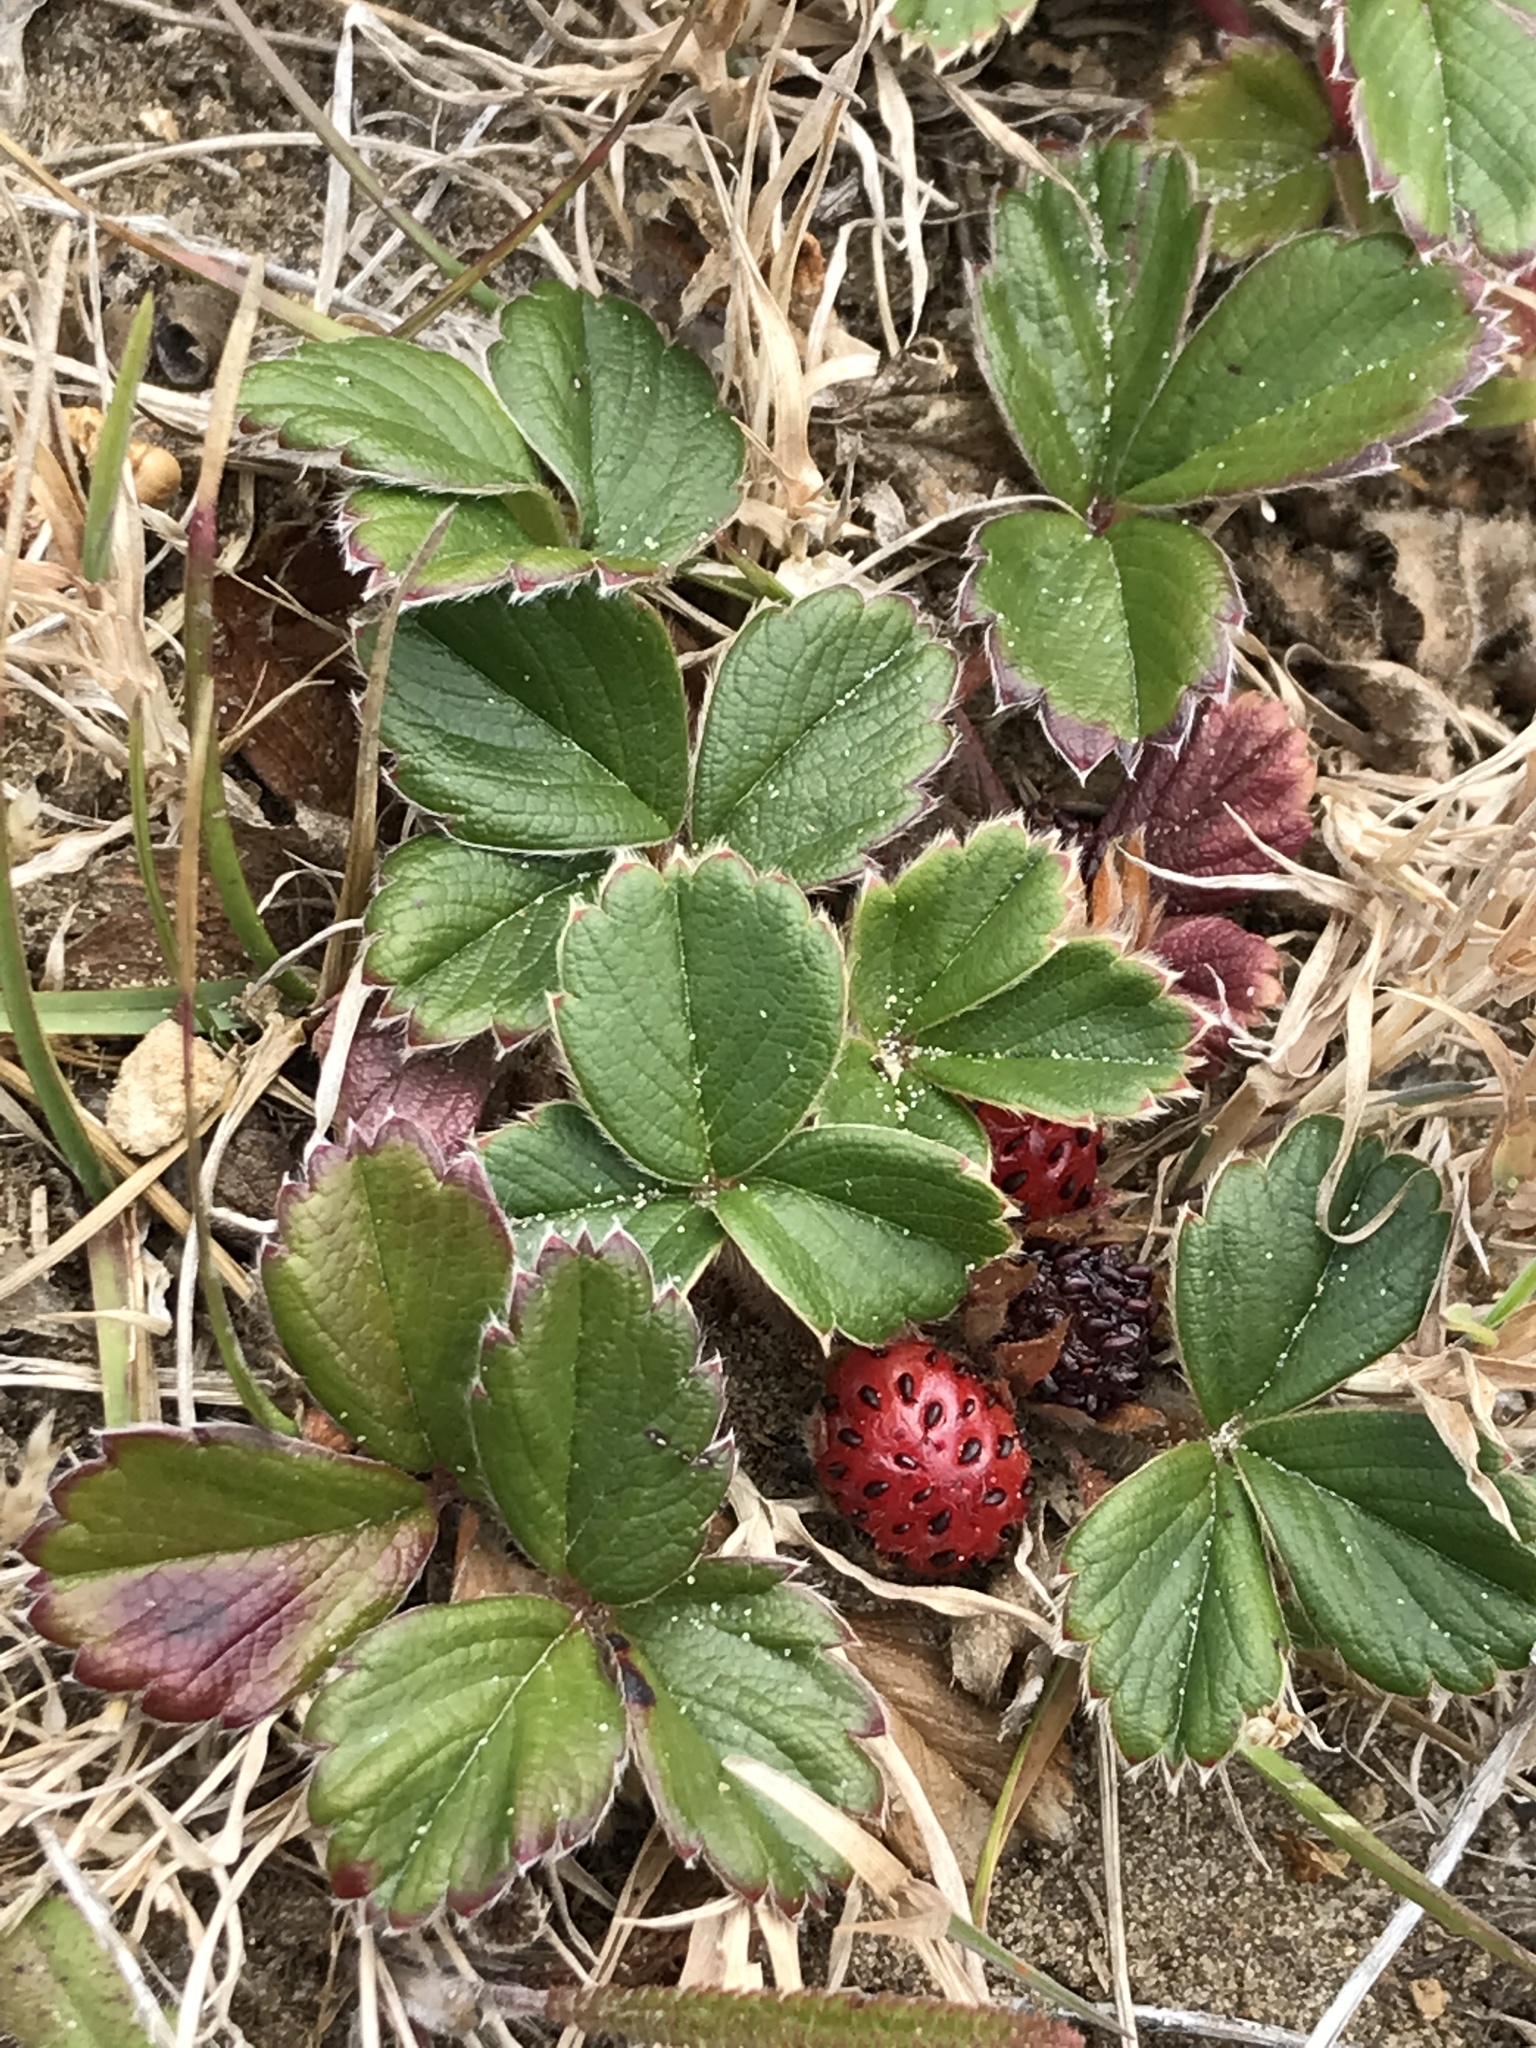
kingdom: Plantae
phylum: Tracheophyta
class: Magnoliopsida
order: Rosales
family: Rosaceae
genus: Fragaria
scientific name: Fragaria chiloensis
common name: Beach strawberry
